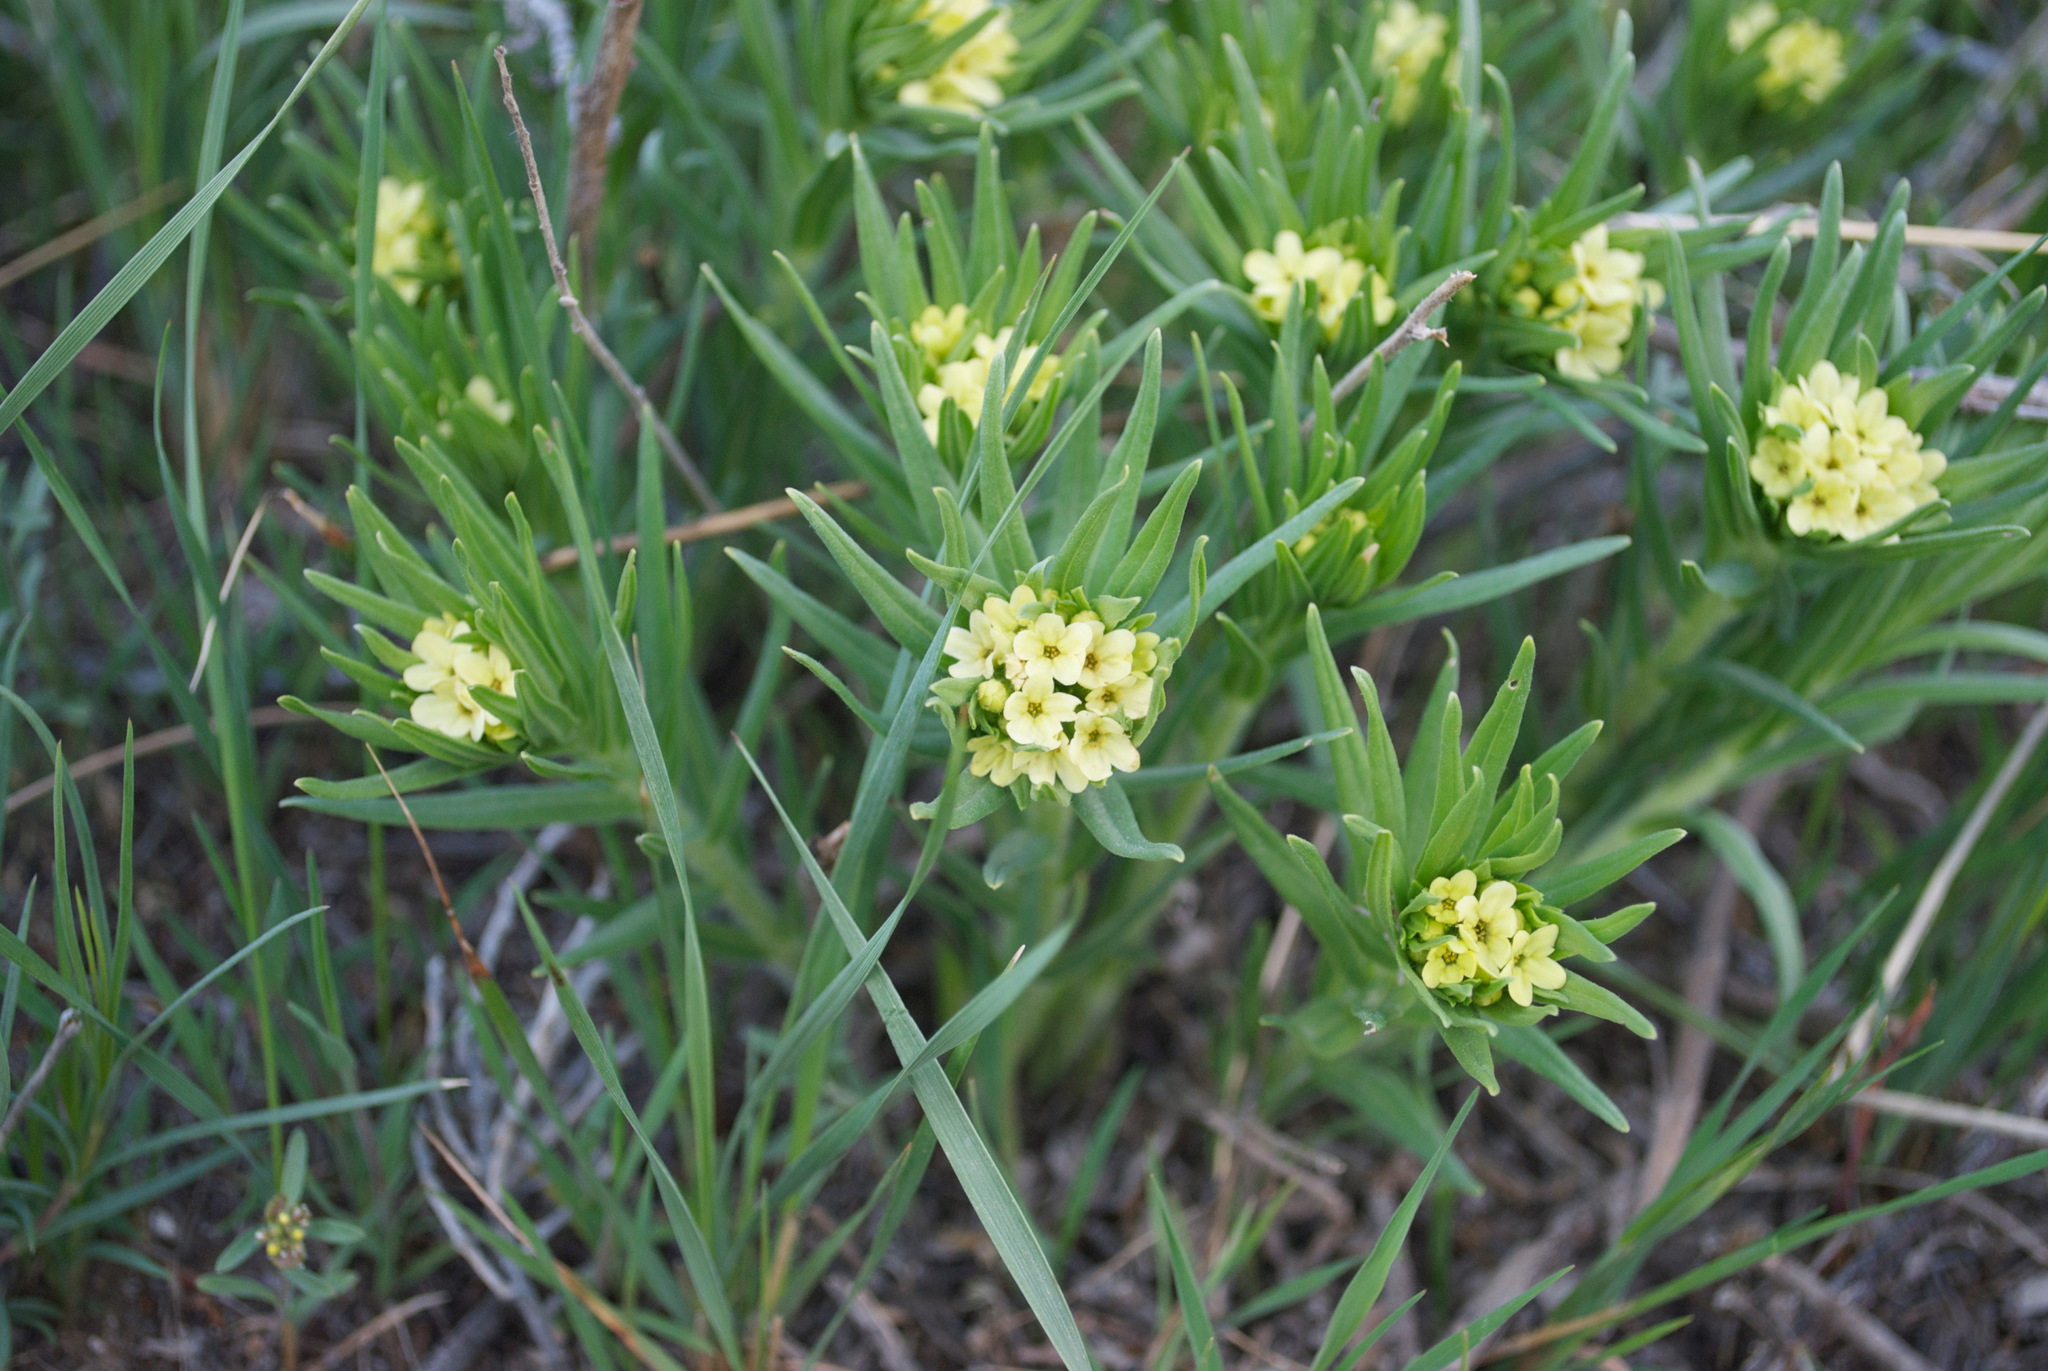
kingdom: Plantae
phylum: Tracheophyta
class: Magnoliopsida
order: Boraginales
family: Boraginaceae
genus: Lithospermum
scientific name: Lithospermum ruderale
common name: Western gromwell
